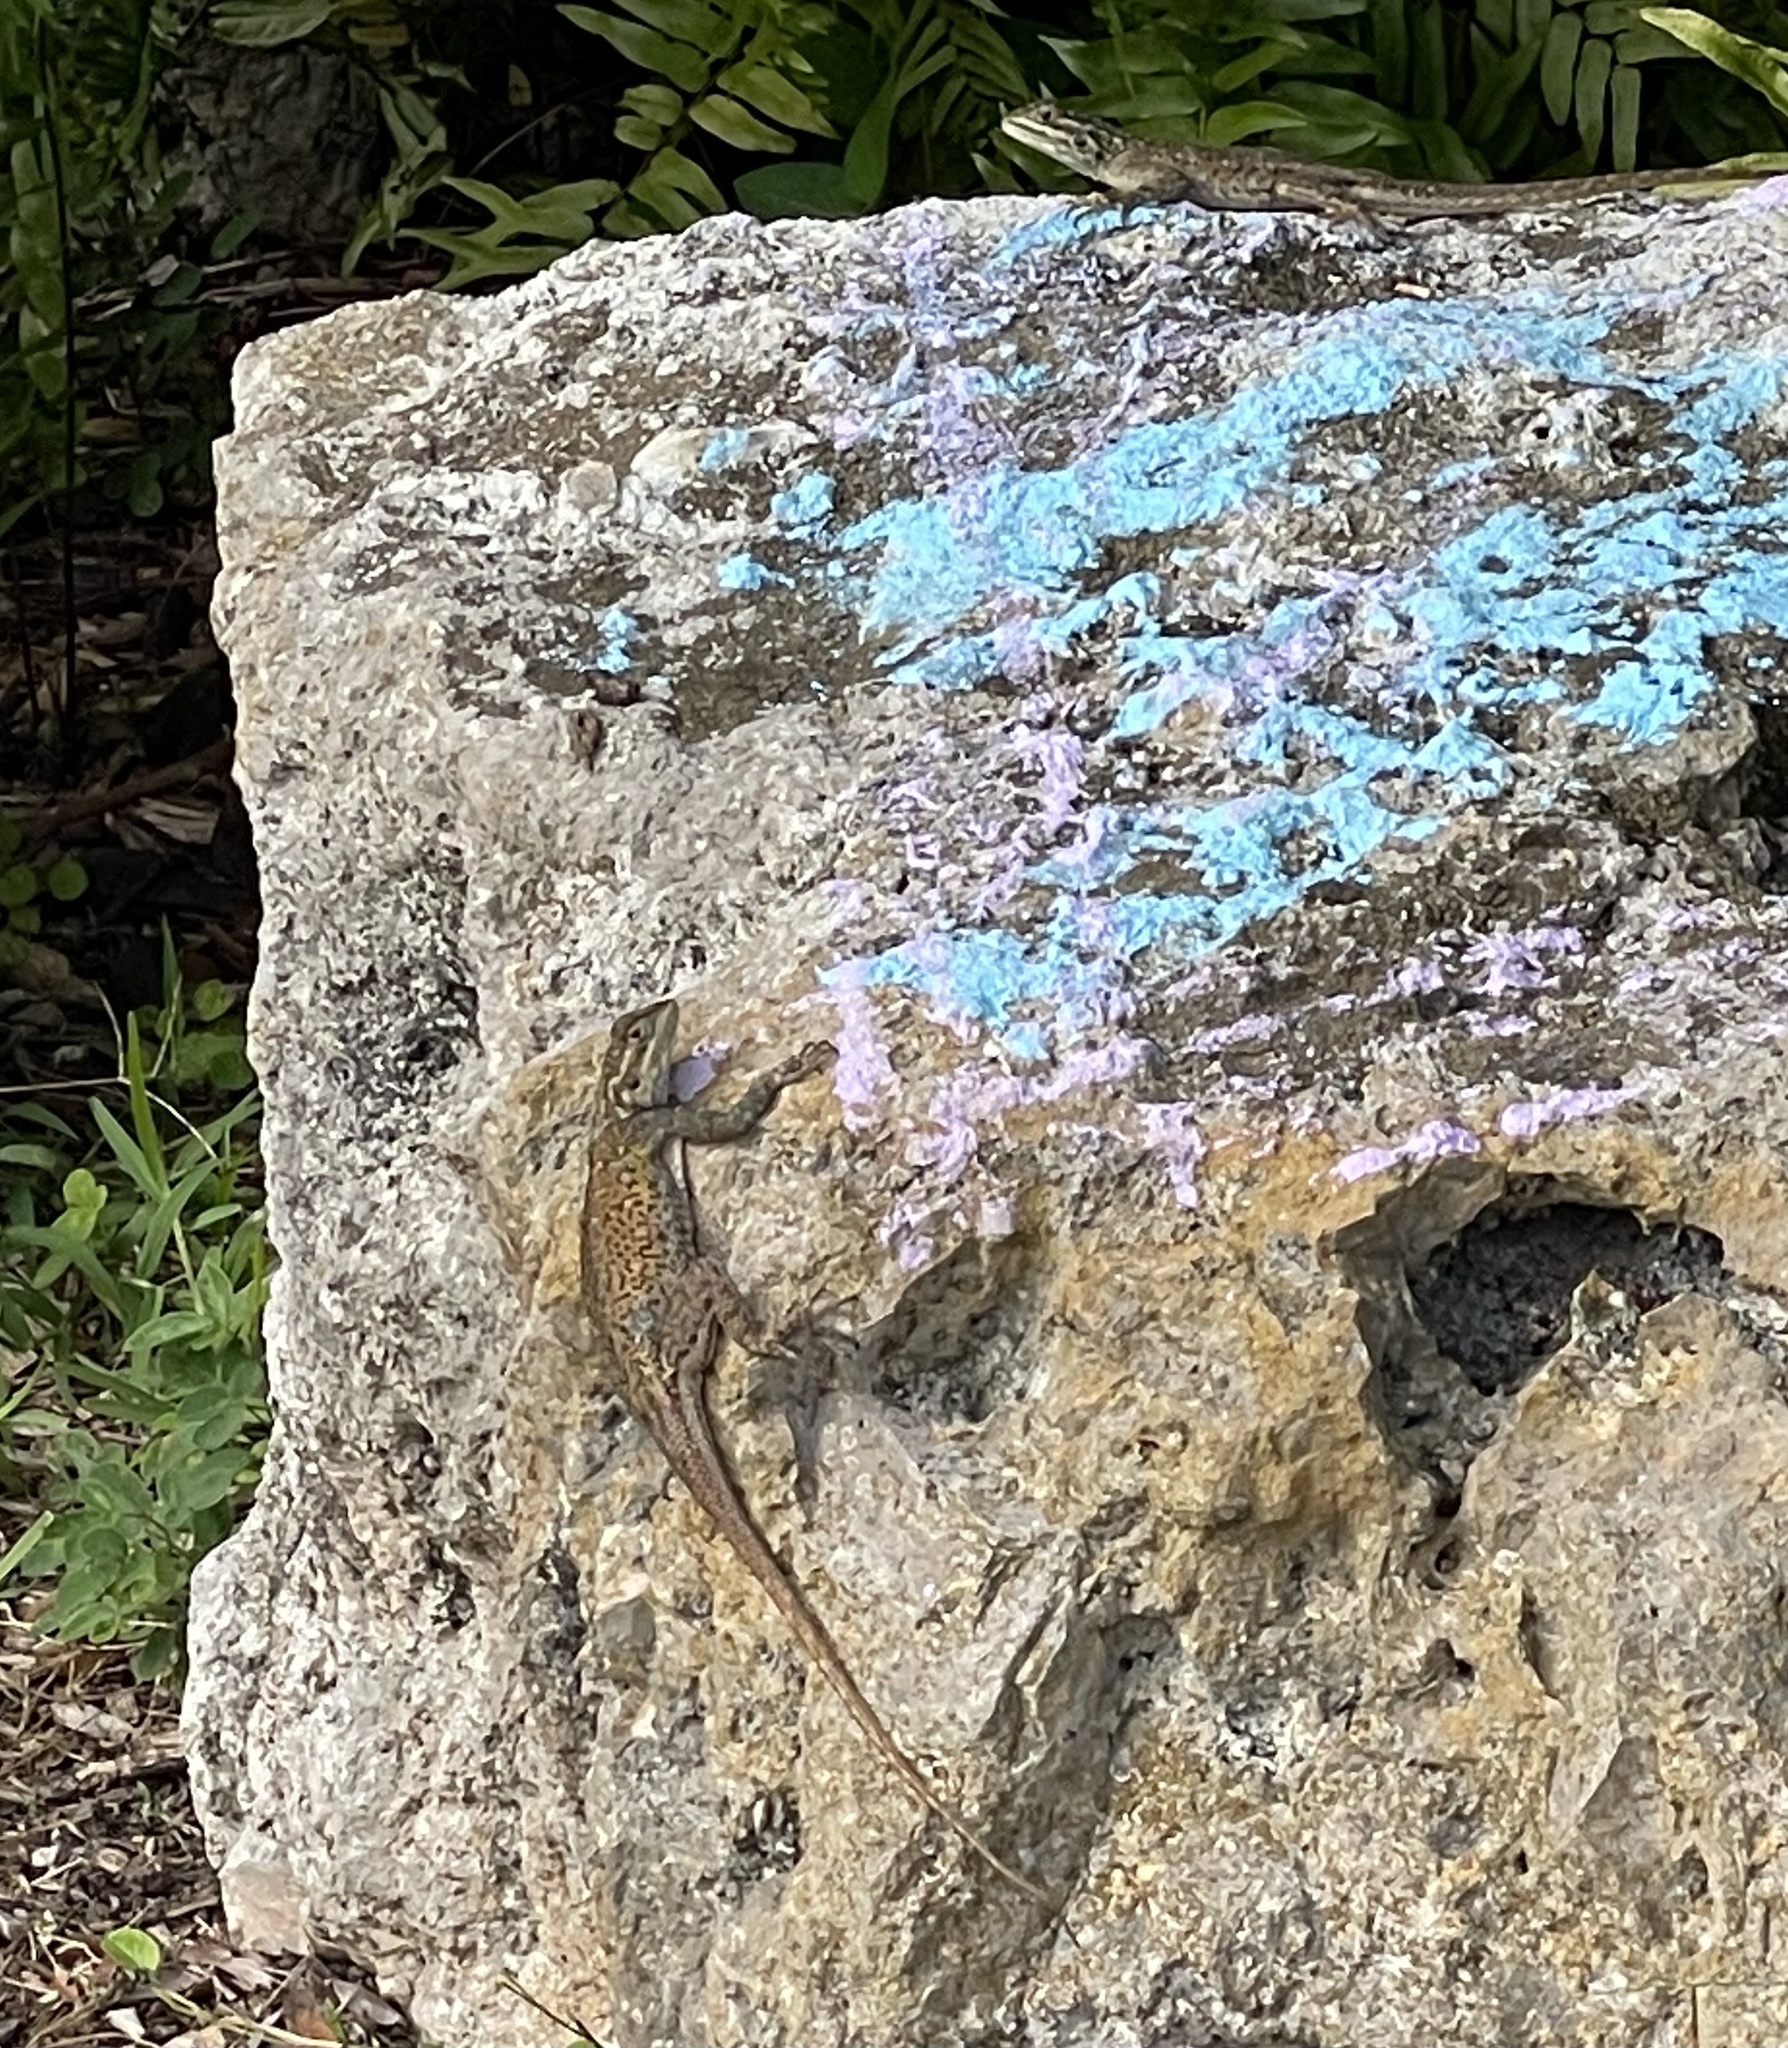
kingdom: Animalia
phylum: Chordata
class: Squamata
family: Agamidae
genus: Agama
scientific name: Agama picticauda
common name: Red-headed agama
